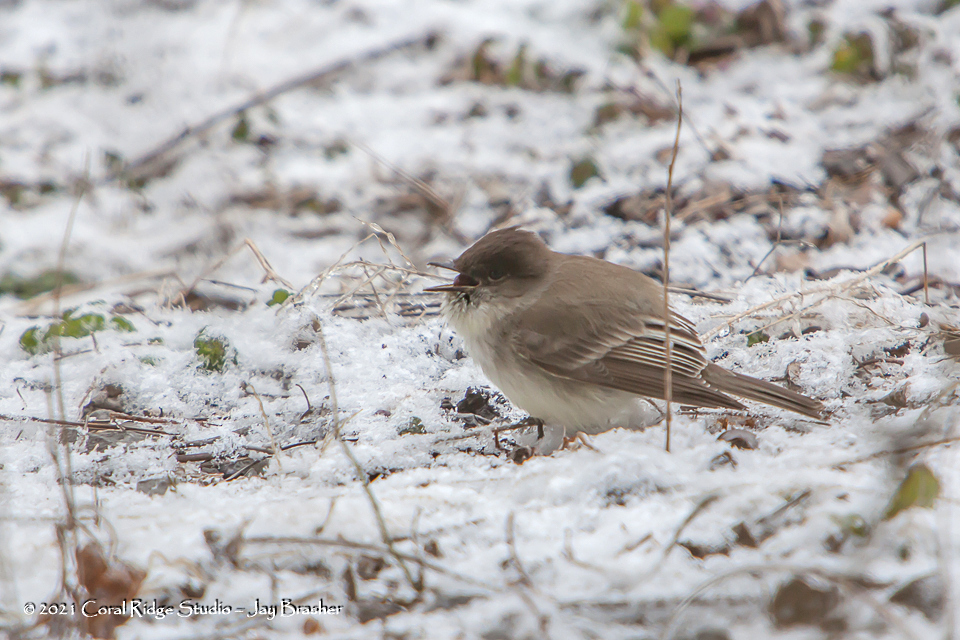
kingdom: Animalia
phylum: Chordata
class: Aves
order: Passeriformes
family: Tyrannidae
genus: Sayornis
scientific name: Sayornis phoebe
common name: Eastern phoebe
